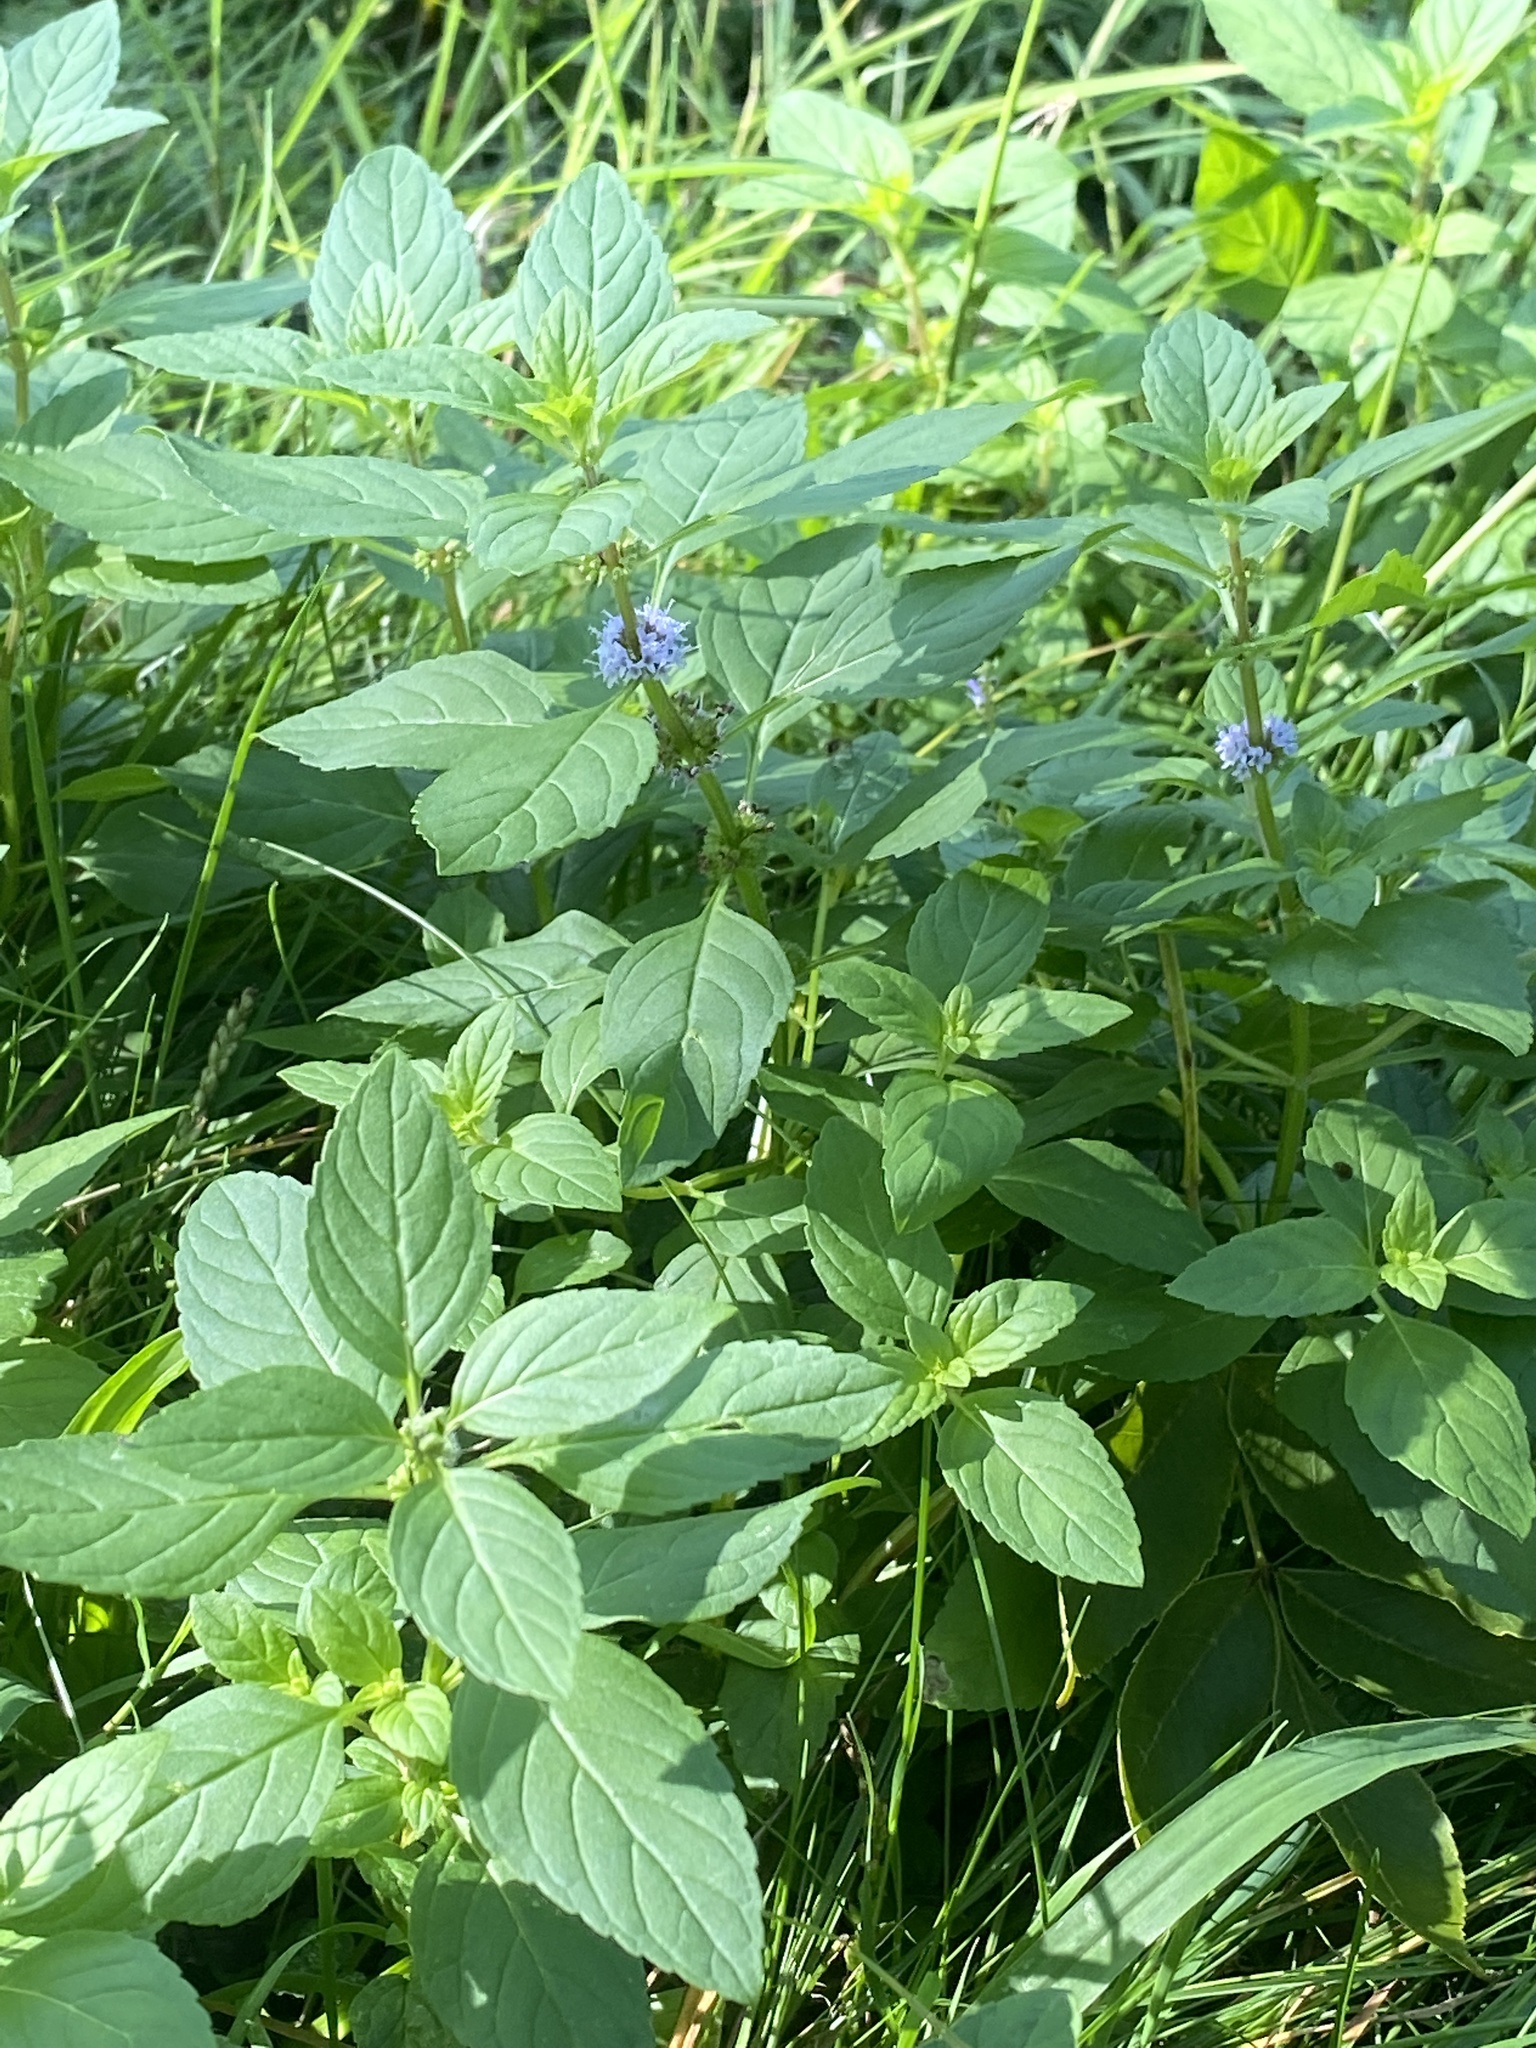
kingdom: Plantae
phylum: Tracheophyta
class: Magnoliopsida
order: Lamiales
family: Lamiaceae
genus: Mentha
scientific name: Mentha arvensis
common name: Corn mint
